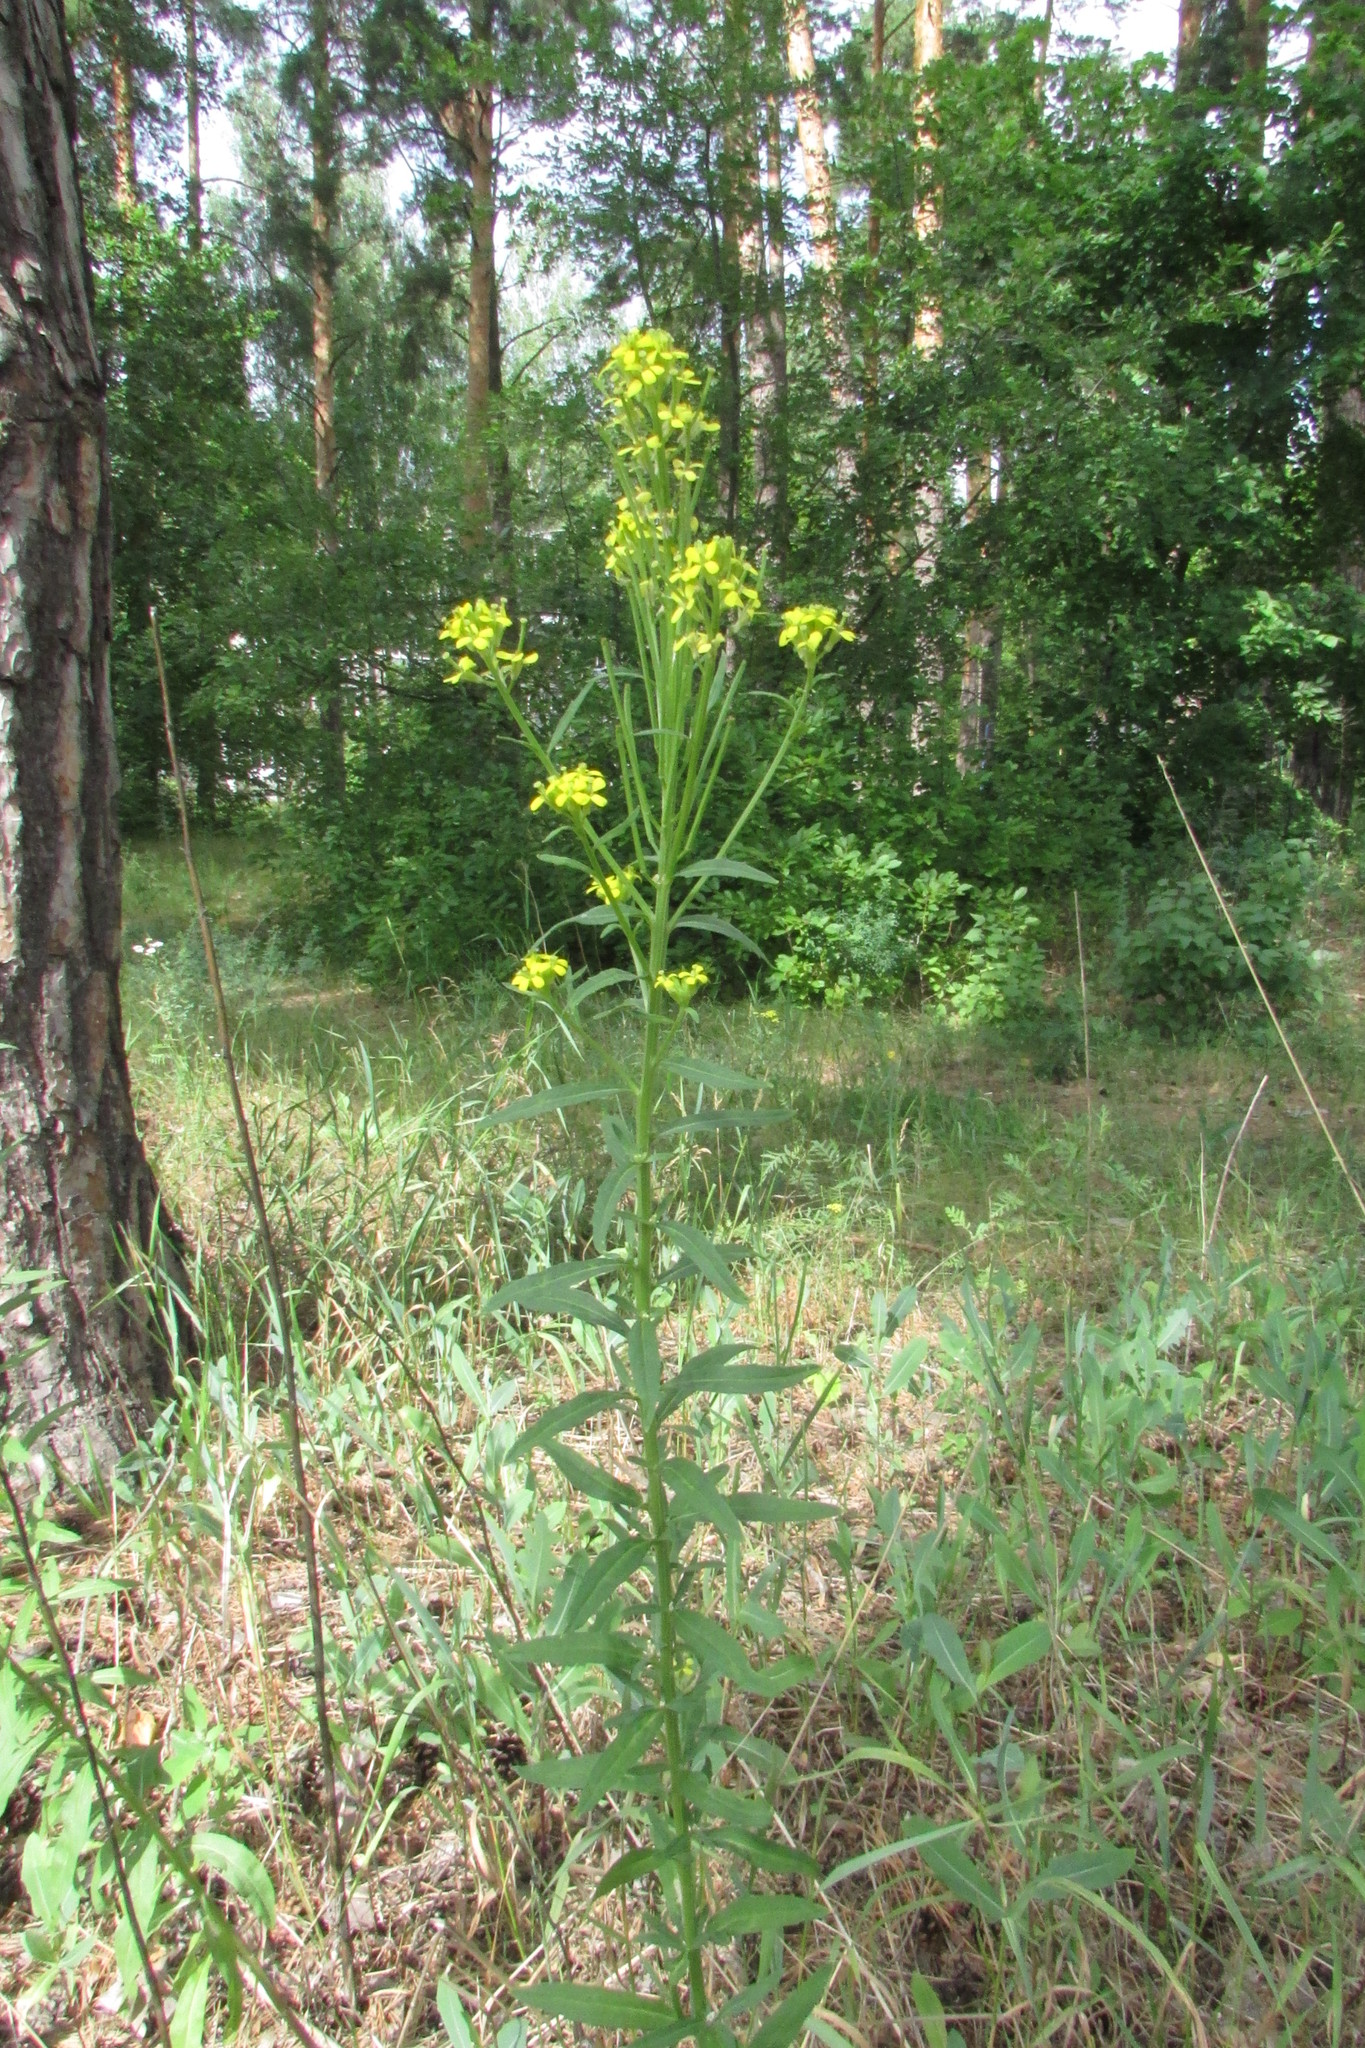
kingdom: Plantae
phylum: Tracheophyta
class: Magnoliopsida
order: Brassicales
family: Brassicaceae
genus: Erysimum
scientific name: Erysimum hieraciifolium
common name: European wallflower
